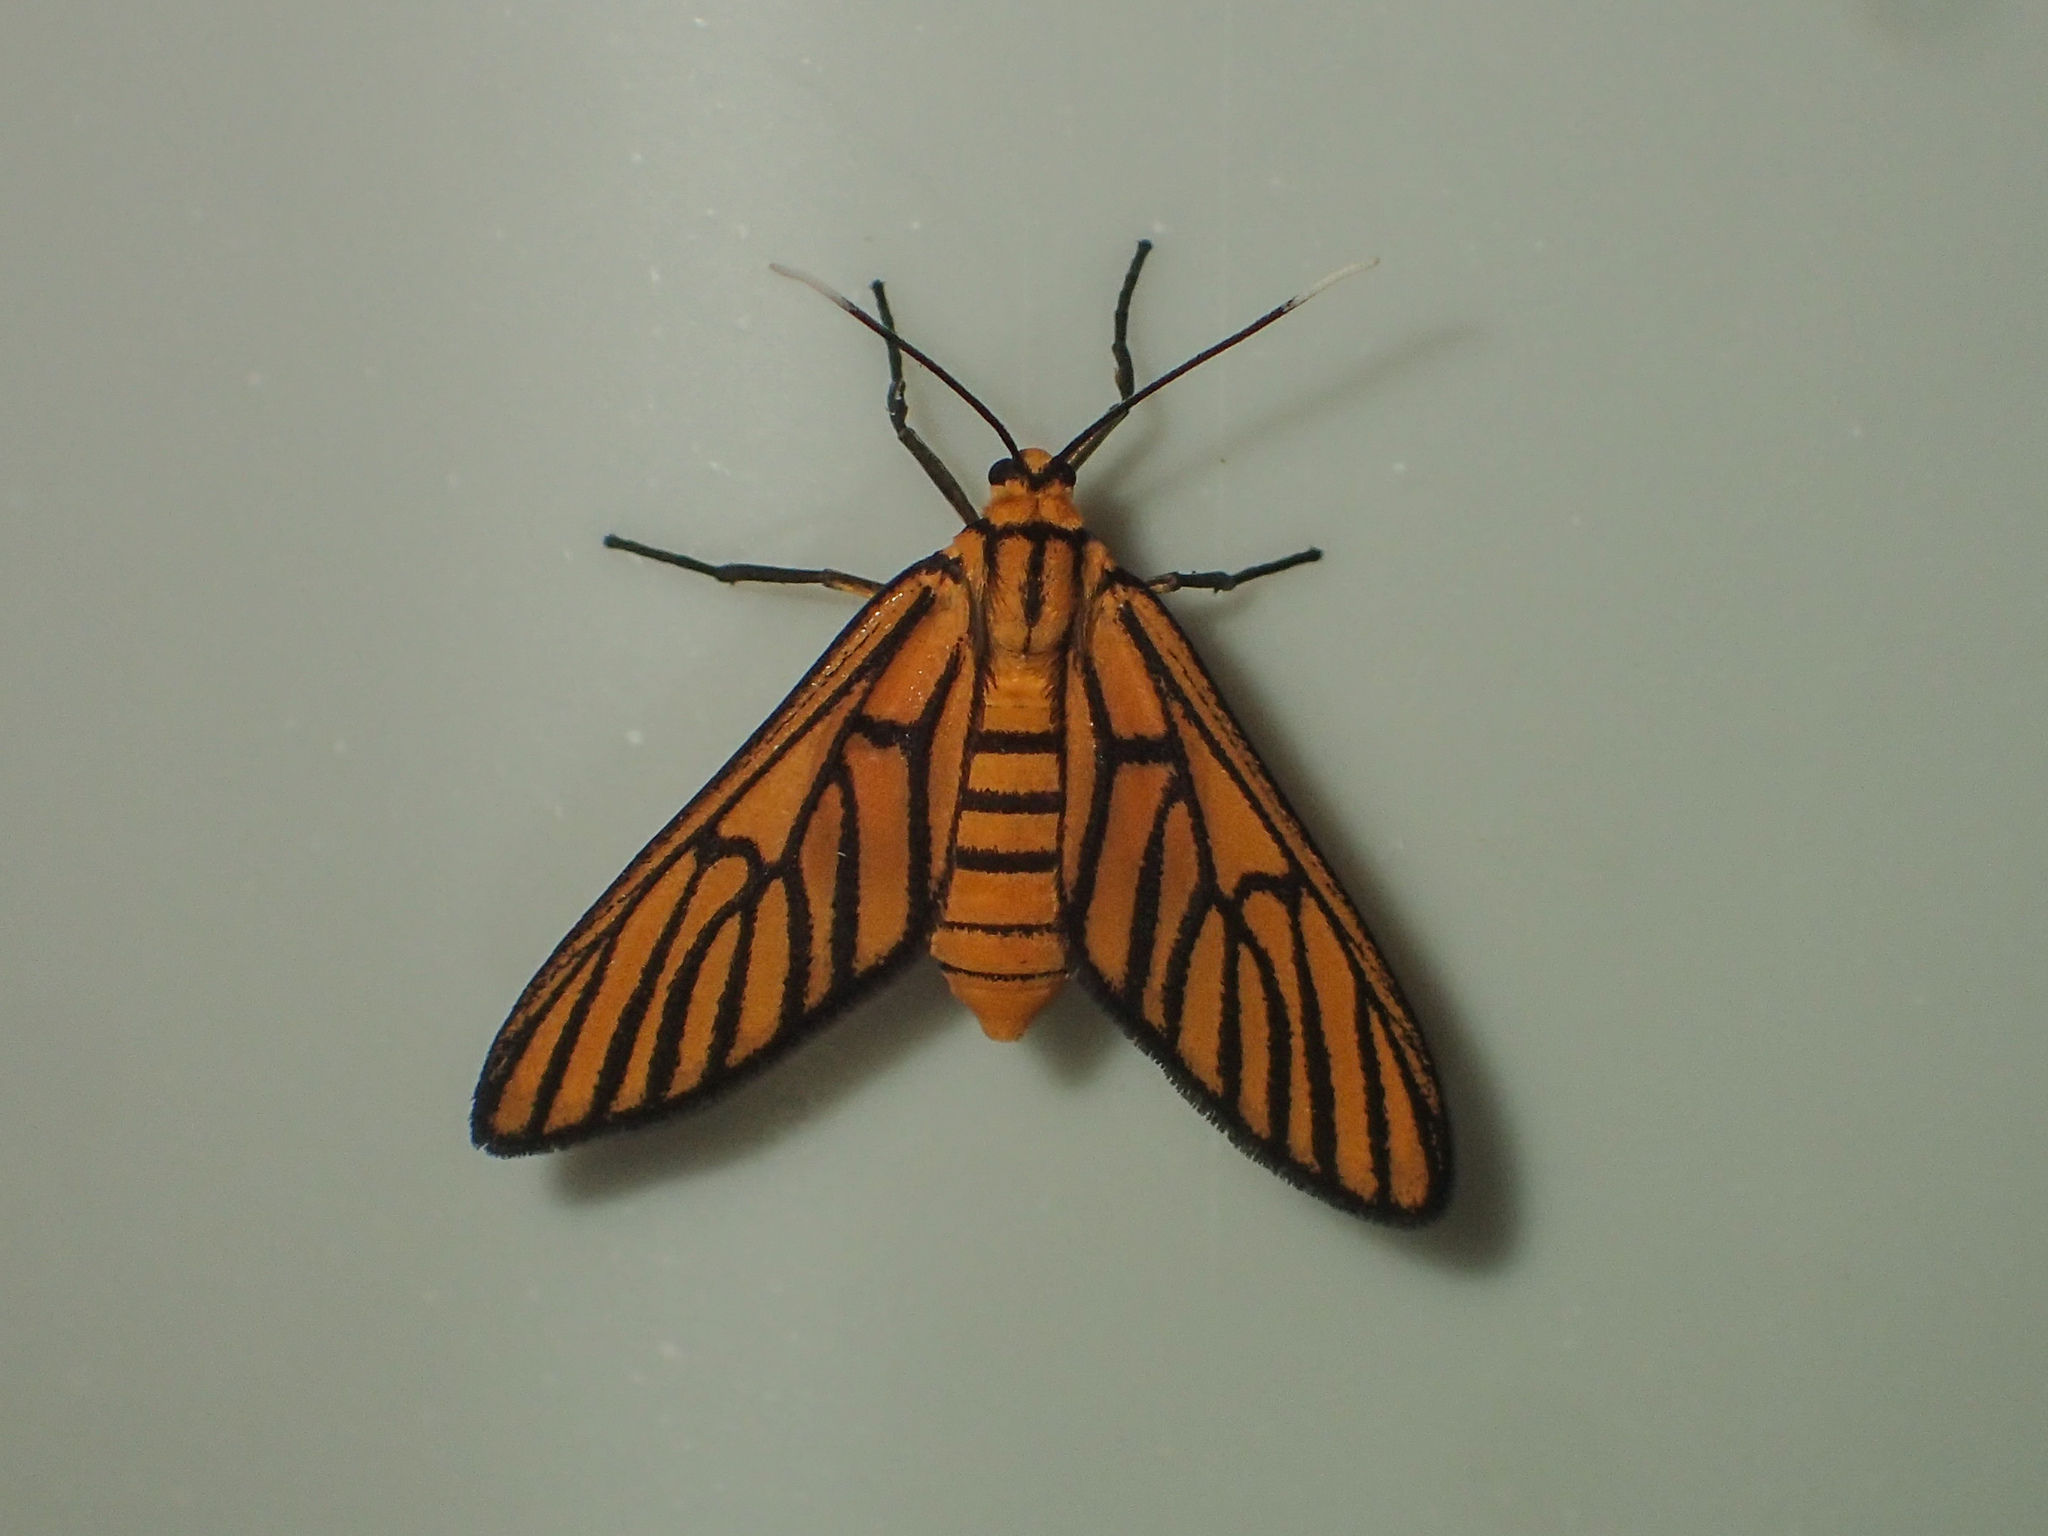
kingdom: Animalia
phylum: Arthropoda
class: Insecta
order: Lepidoptera
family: Erebidae
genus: Amata
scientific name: Amata tigrina
